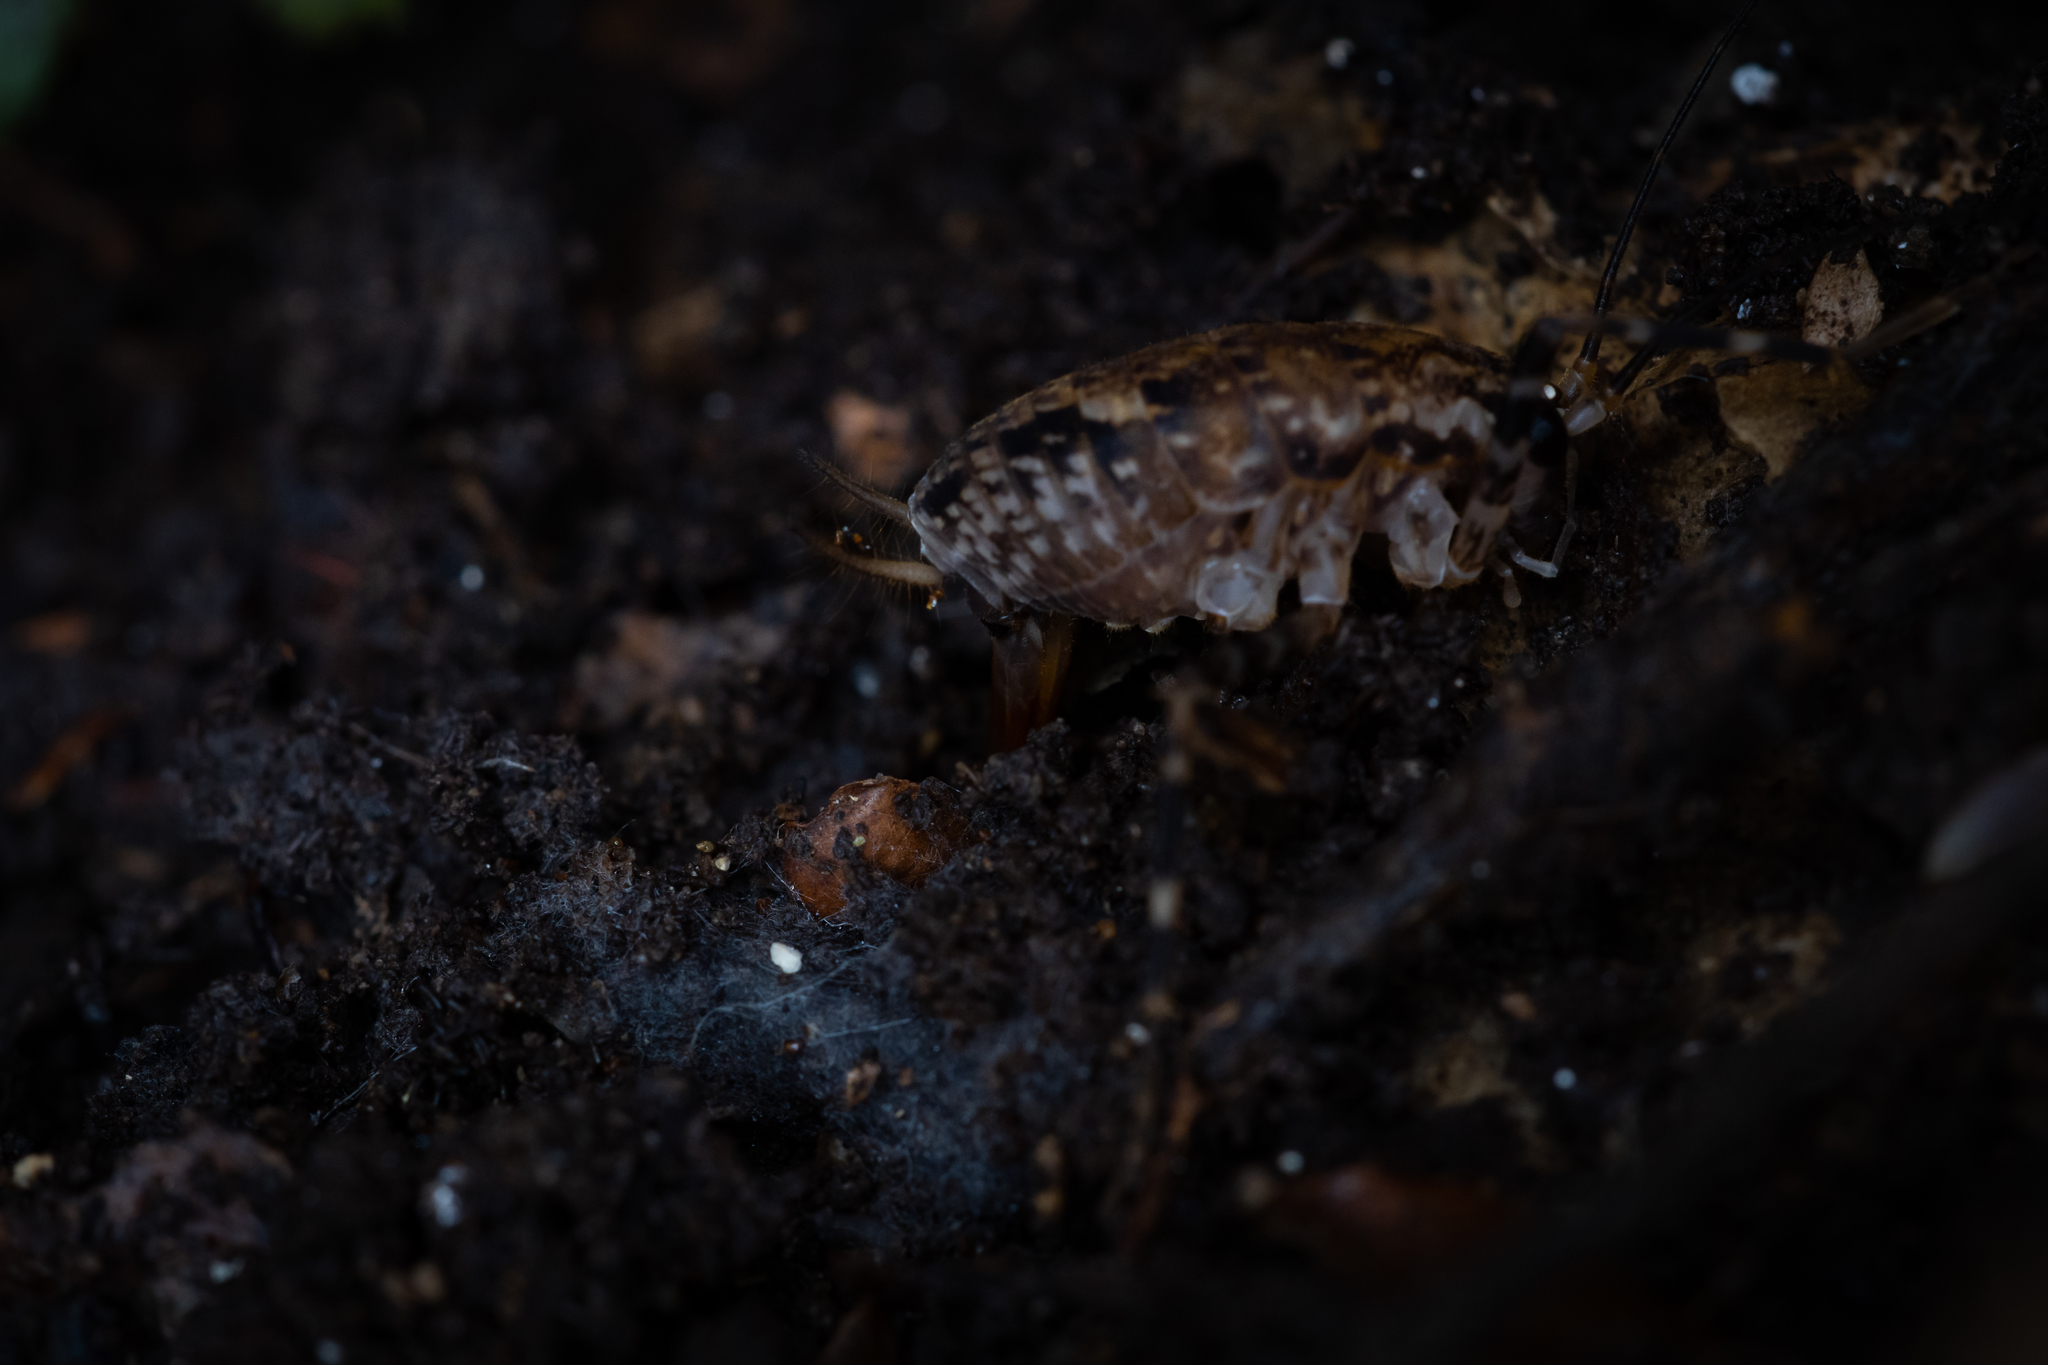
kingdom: Animalia
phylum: Arthropoda
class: Insecta
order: Orthoptera
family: Rhaphidophoridae
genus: Pleioplectron
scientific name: Pleioplectron hudsoni
